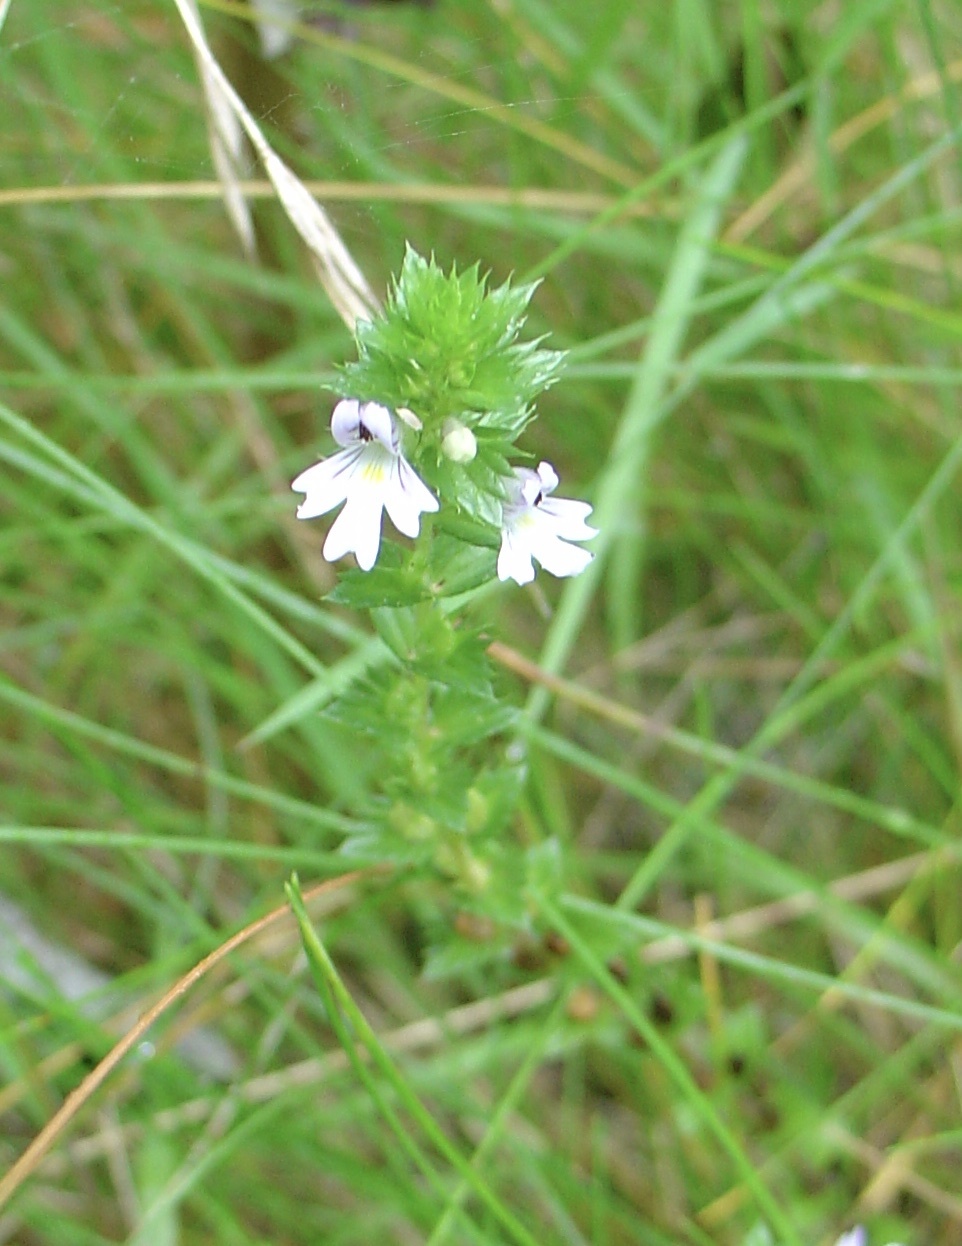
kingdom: Plantae
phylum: Tracheophyta
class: Magnoliopsida
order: Lamiales
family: Orobanchaceae
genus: Euphrasia
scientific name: Euphrasia stricta
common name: Drug eyebright
